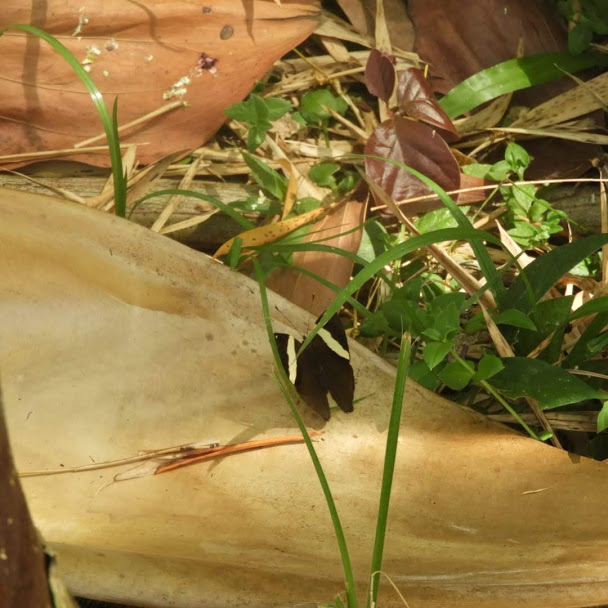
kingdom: Animalia
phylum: Arthropoda
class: Insecta
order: Lepidoptera
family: Nymphalidae
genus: Colobura
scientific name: Colobura dirce
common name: Dirce beauty
